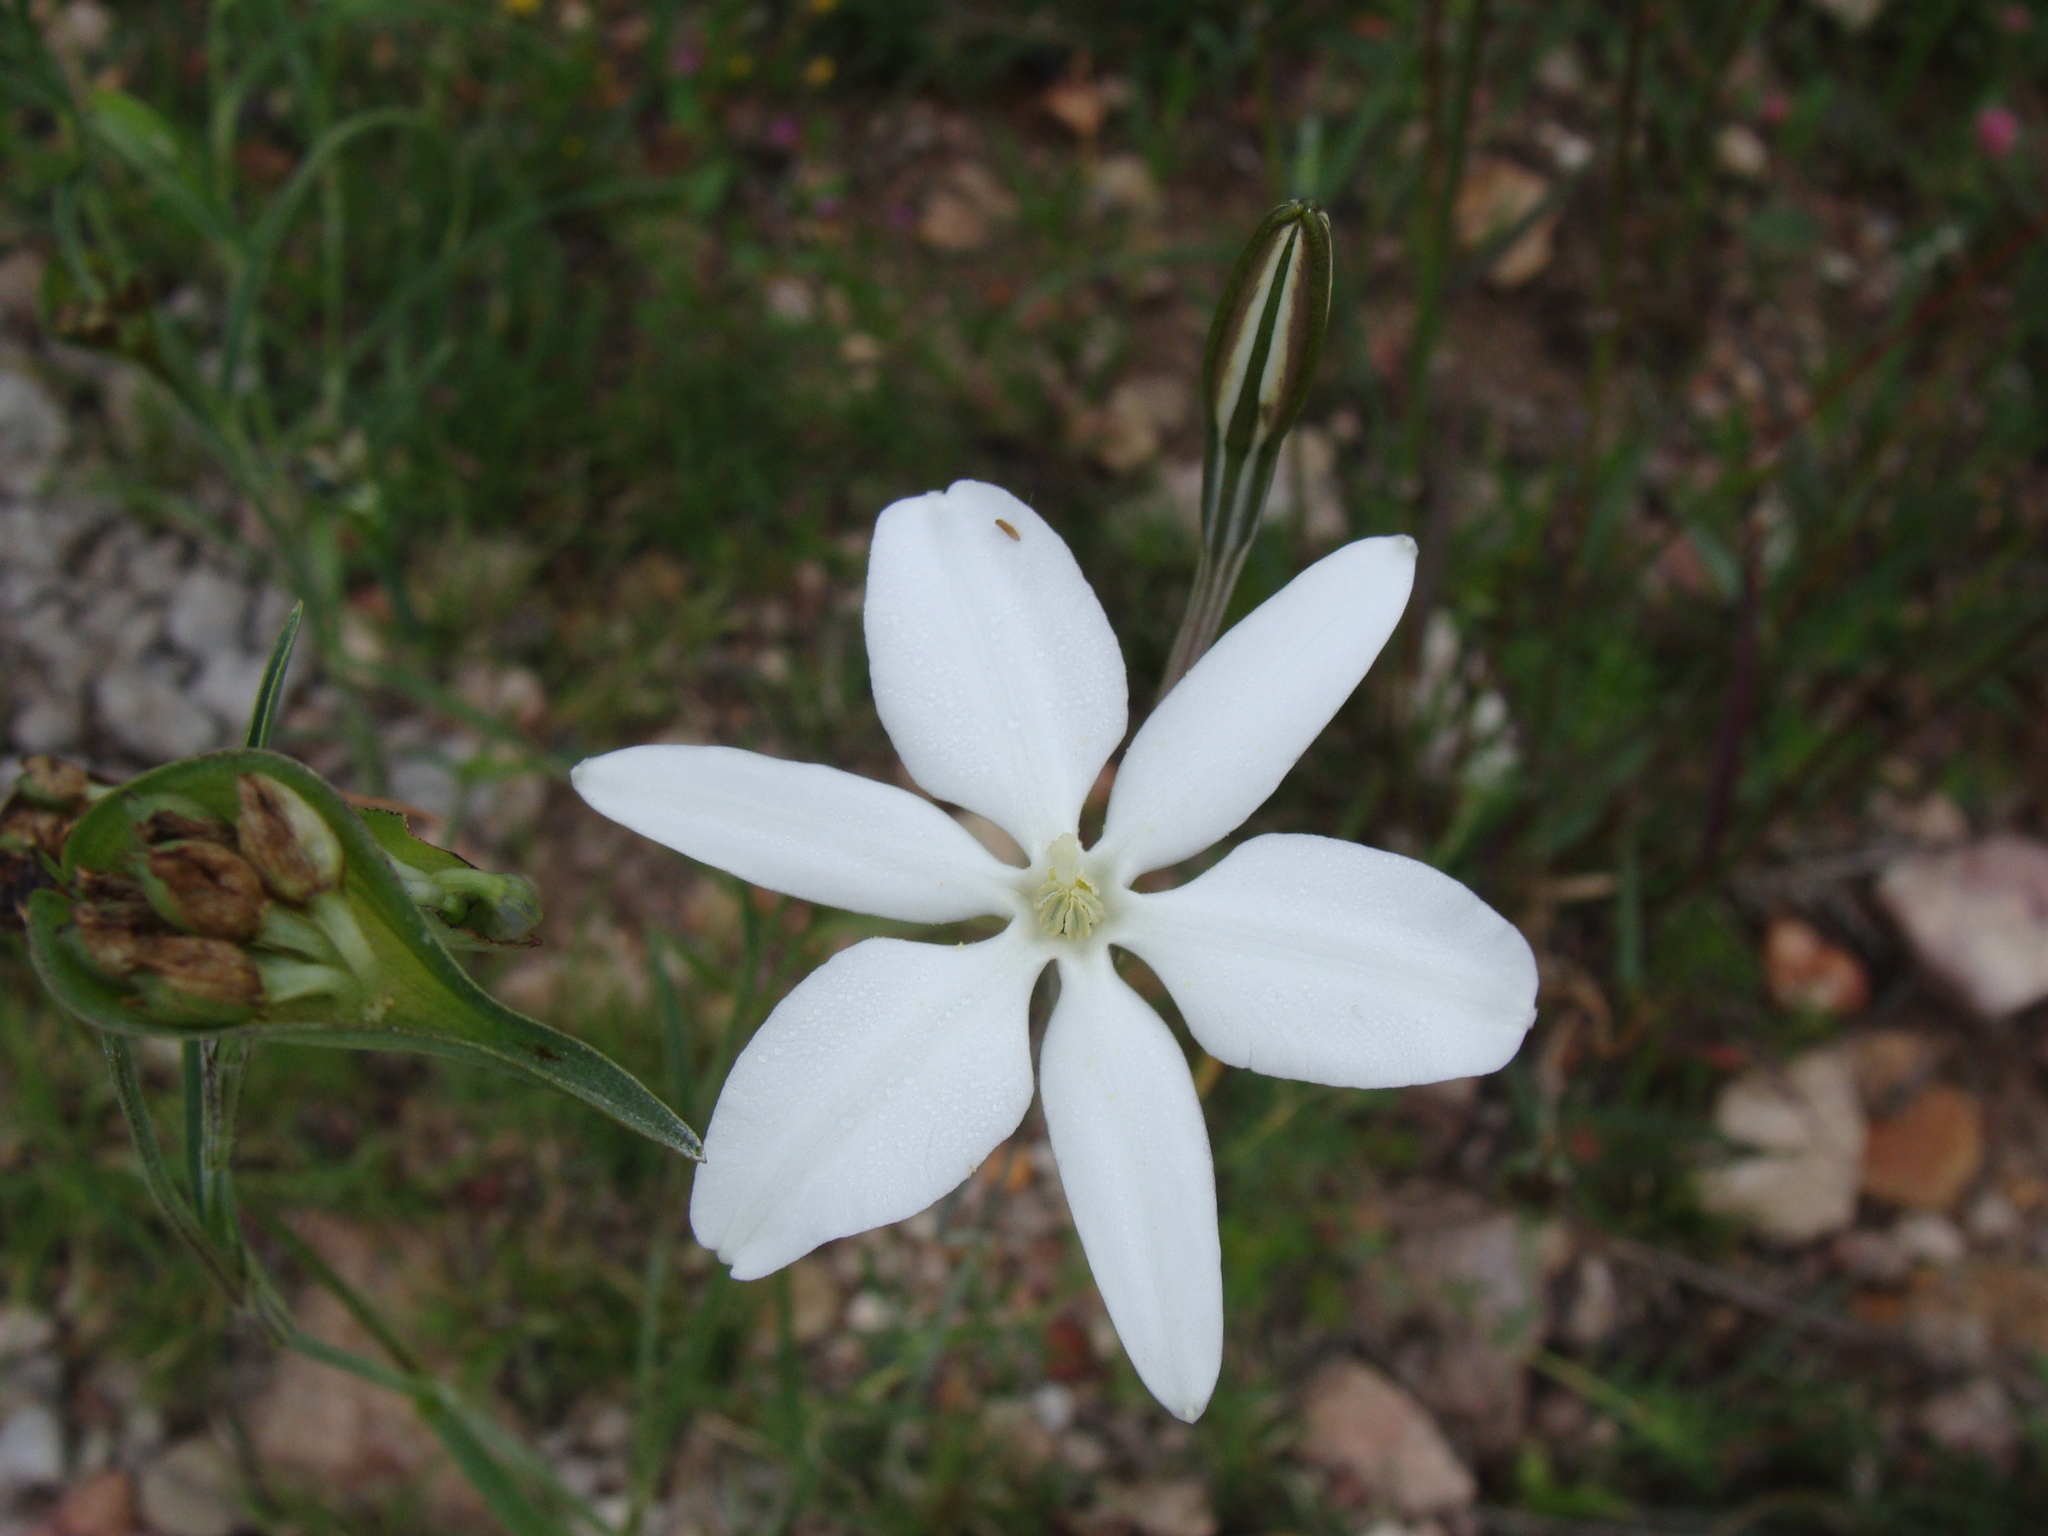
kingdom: Plantae
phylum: Tracheophyta
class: Liliopsida
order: Asparagales
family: Asparagaceae
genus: Milla
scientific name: Milla biflora
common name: Mexican-star
